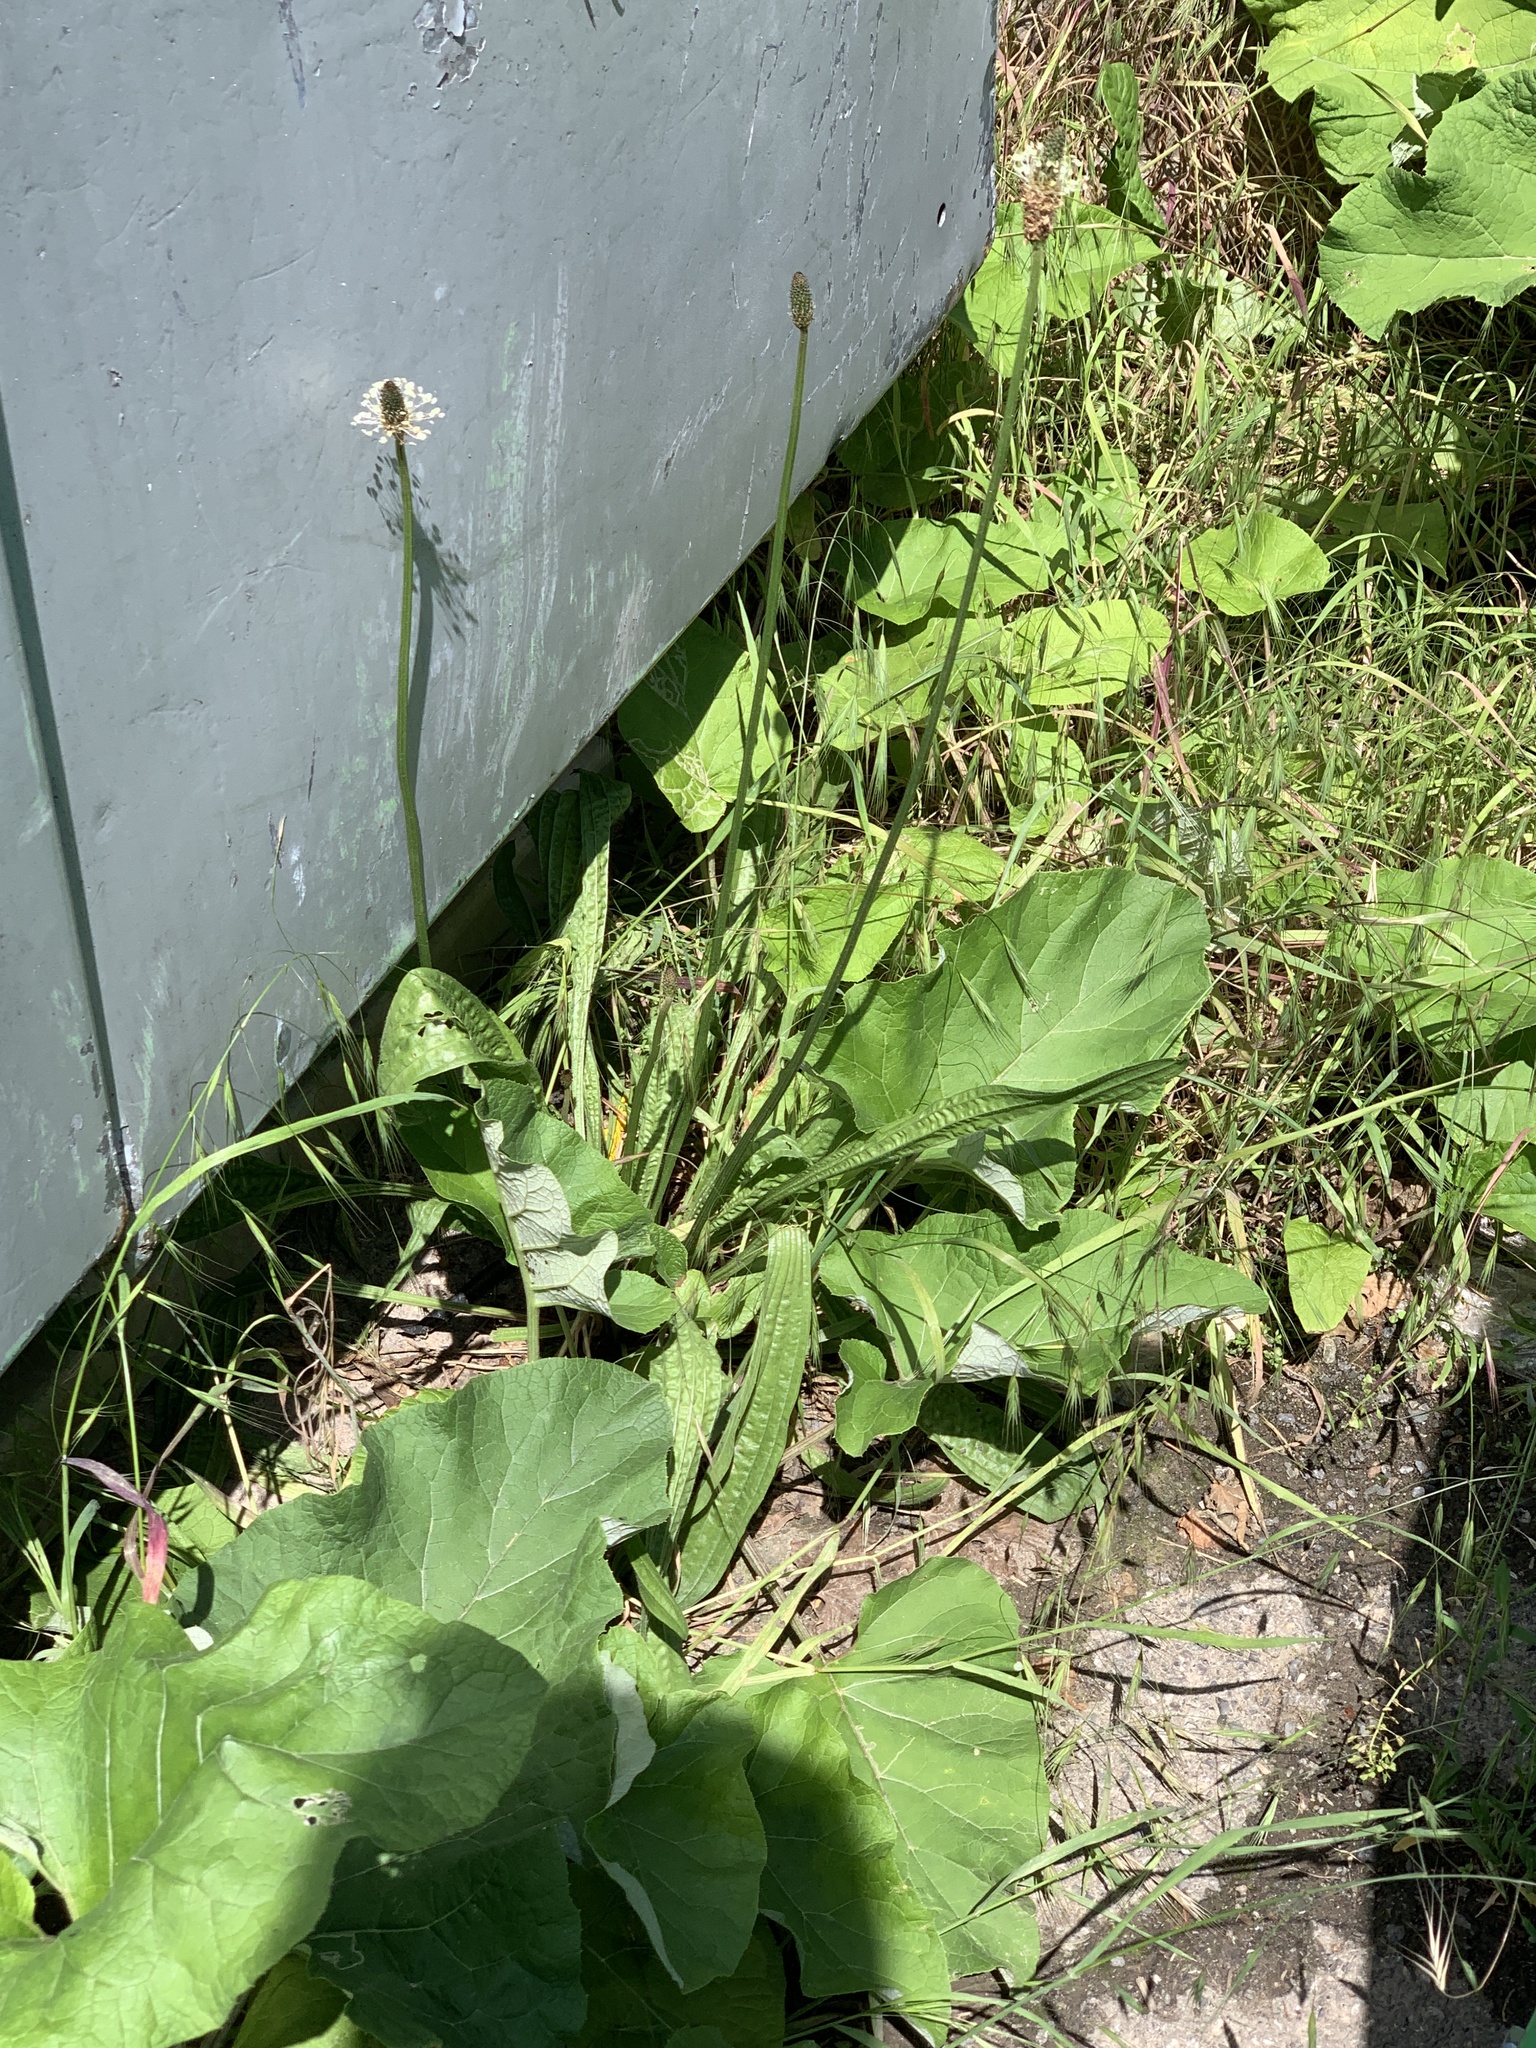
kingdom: Plantae
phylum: Tracheophyta
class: Magnoliopsida
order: Lamiales
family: Plantaginaceae
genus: Plantago
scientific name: Plantago lanceolata
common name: Ribwort plantain
